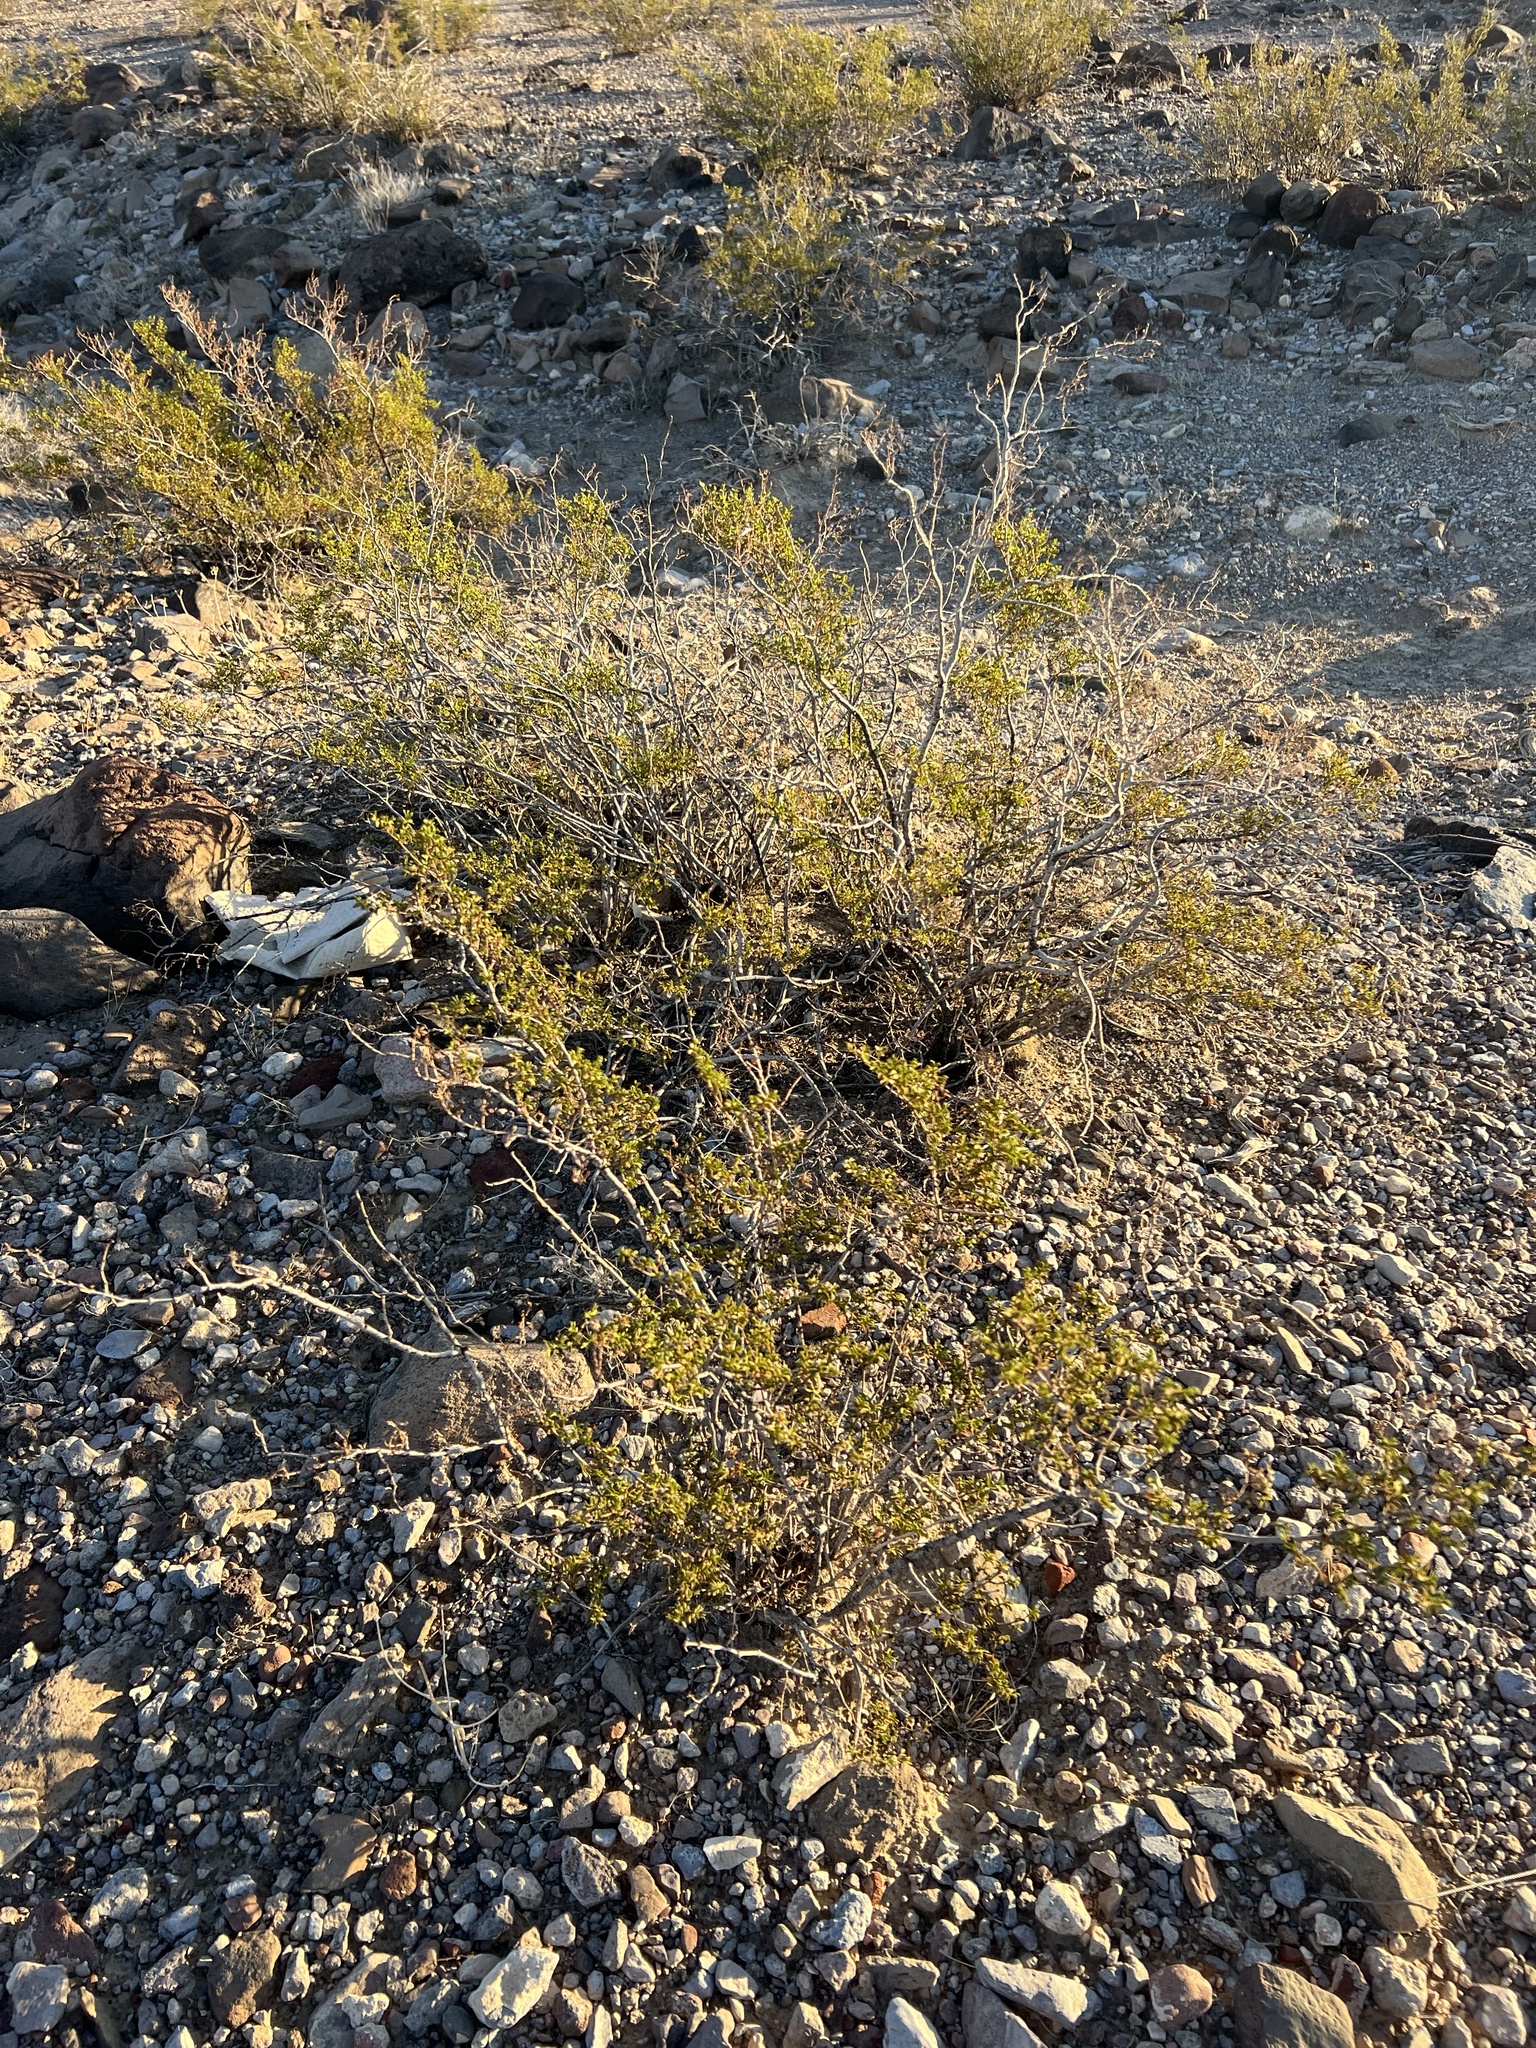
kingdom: Plantae
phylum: Tracheophyta
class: Magnoliopsida
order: Zygophyllales
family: Zygophyllaceae
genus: Larrea
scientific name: Larrea tridentata
